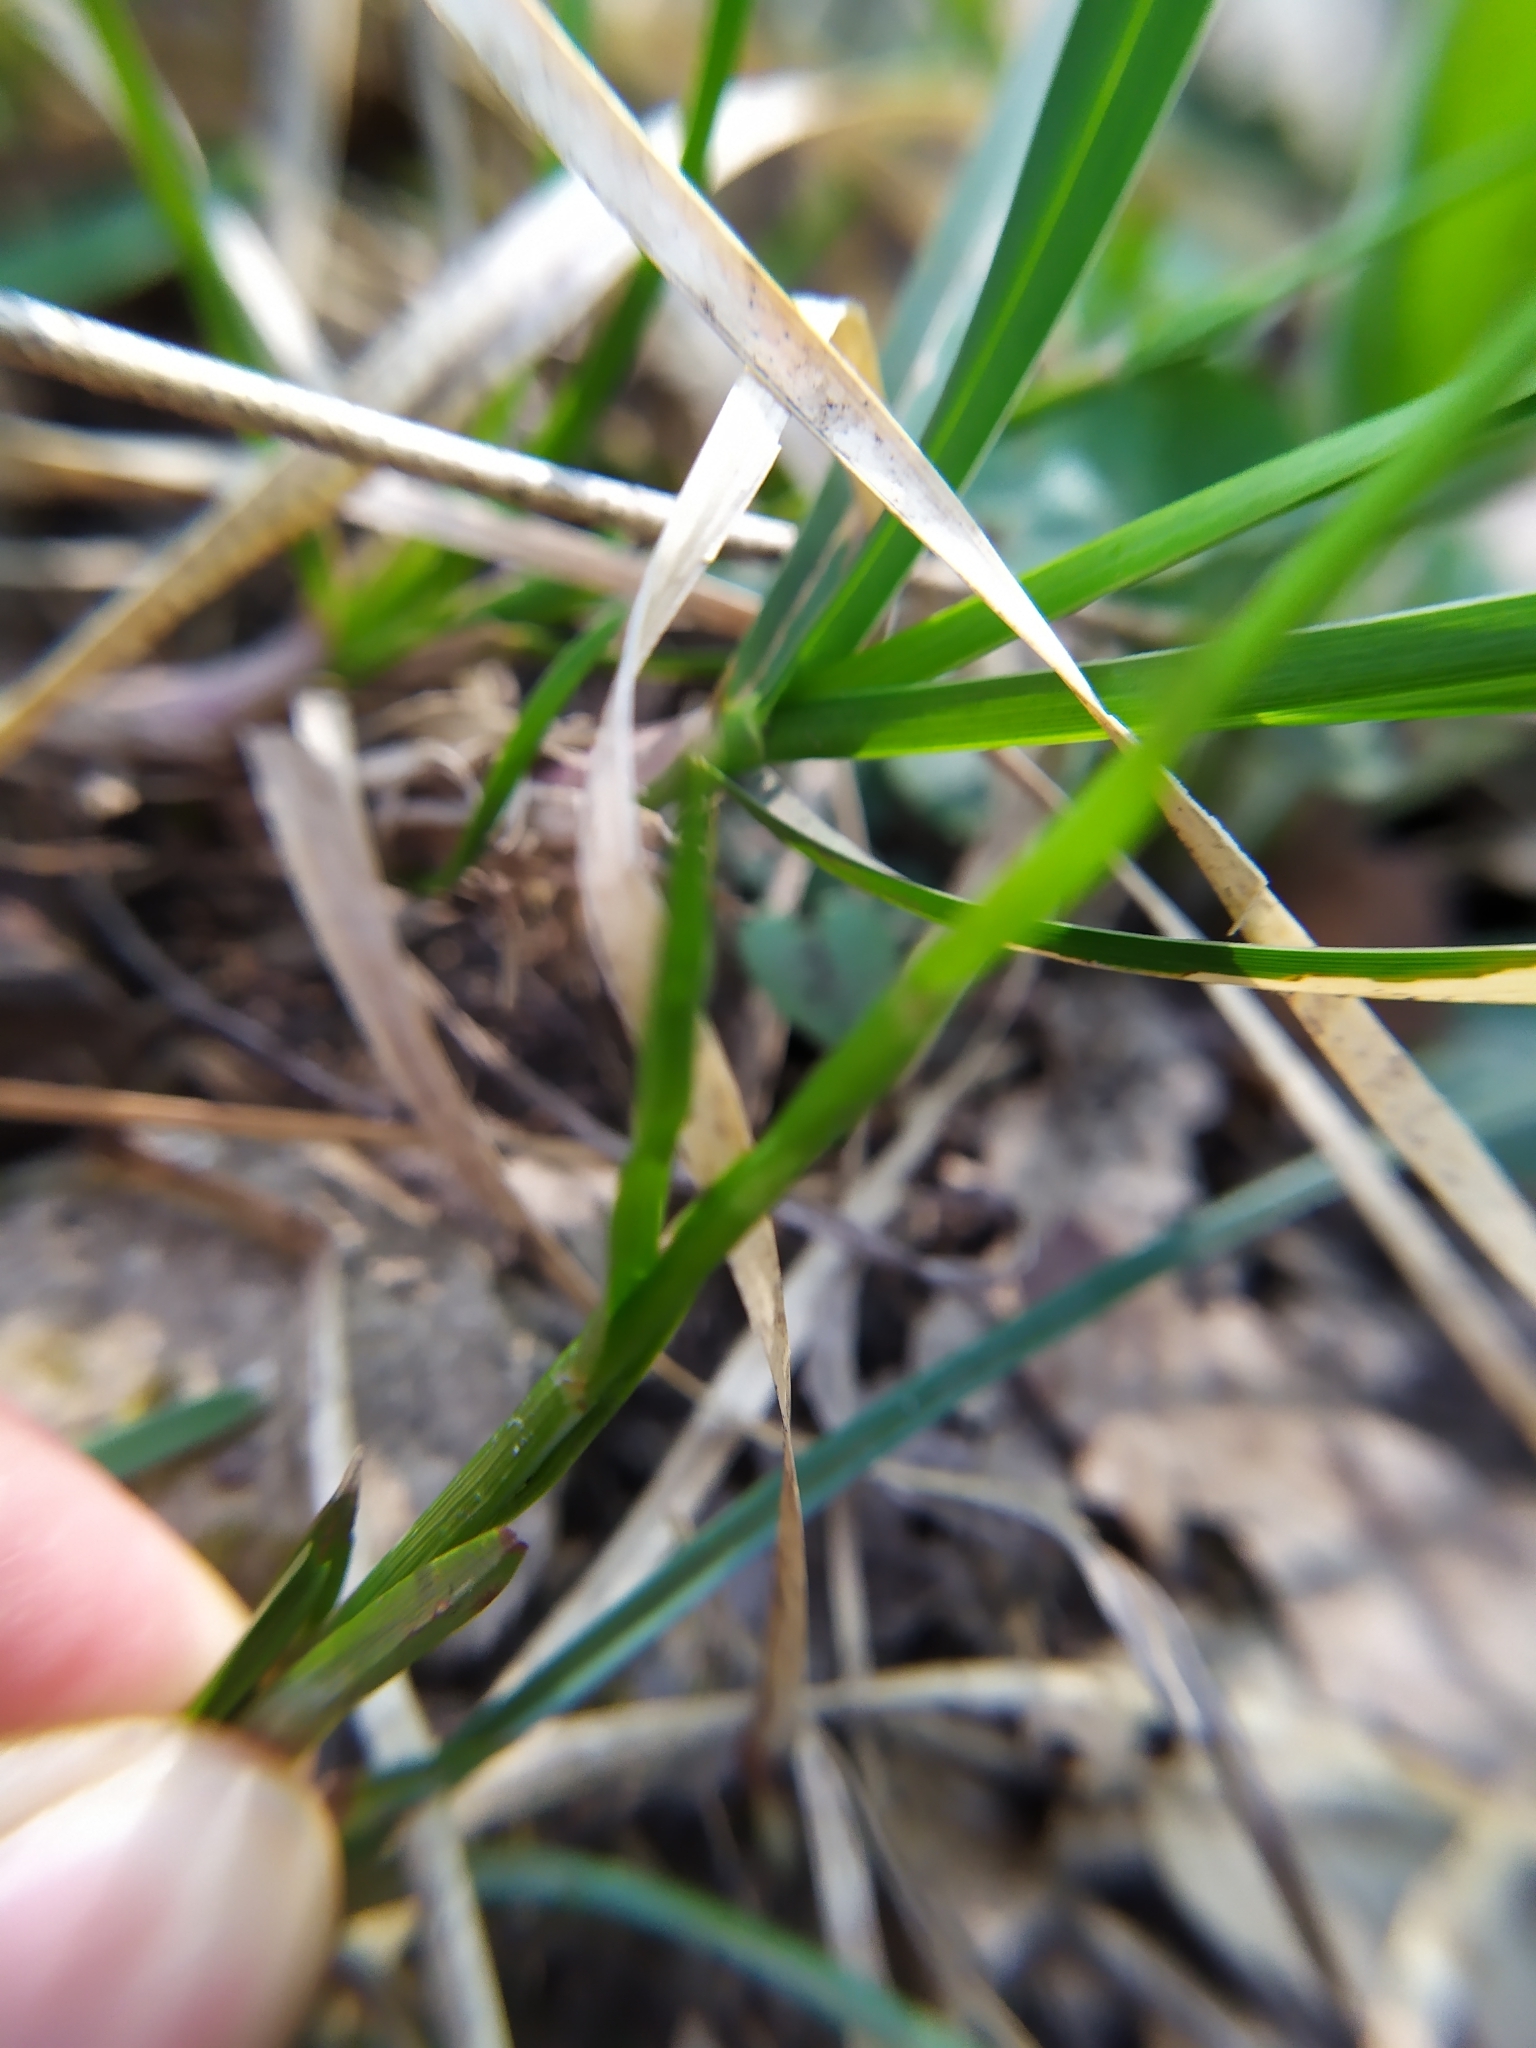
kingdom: Plantae
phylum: Tracheophyta
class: Liliopsida
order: Poales
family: Cyperaceae
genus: Carex
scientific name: Carex michelii
